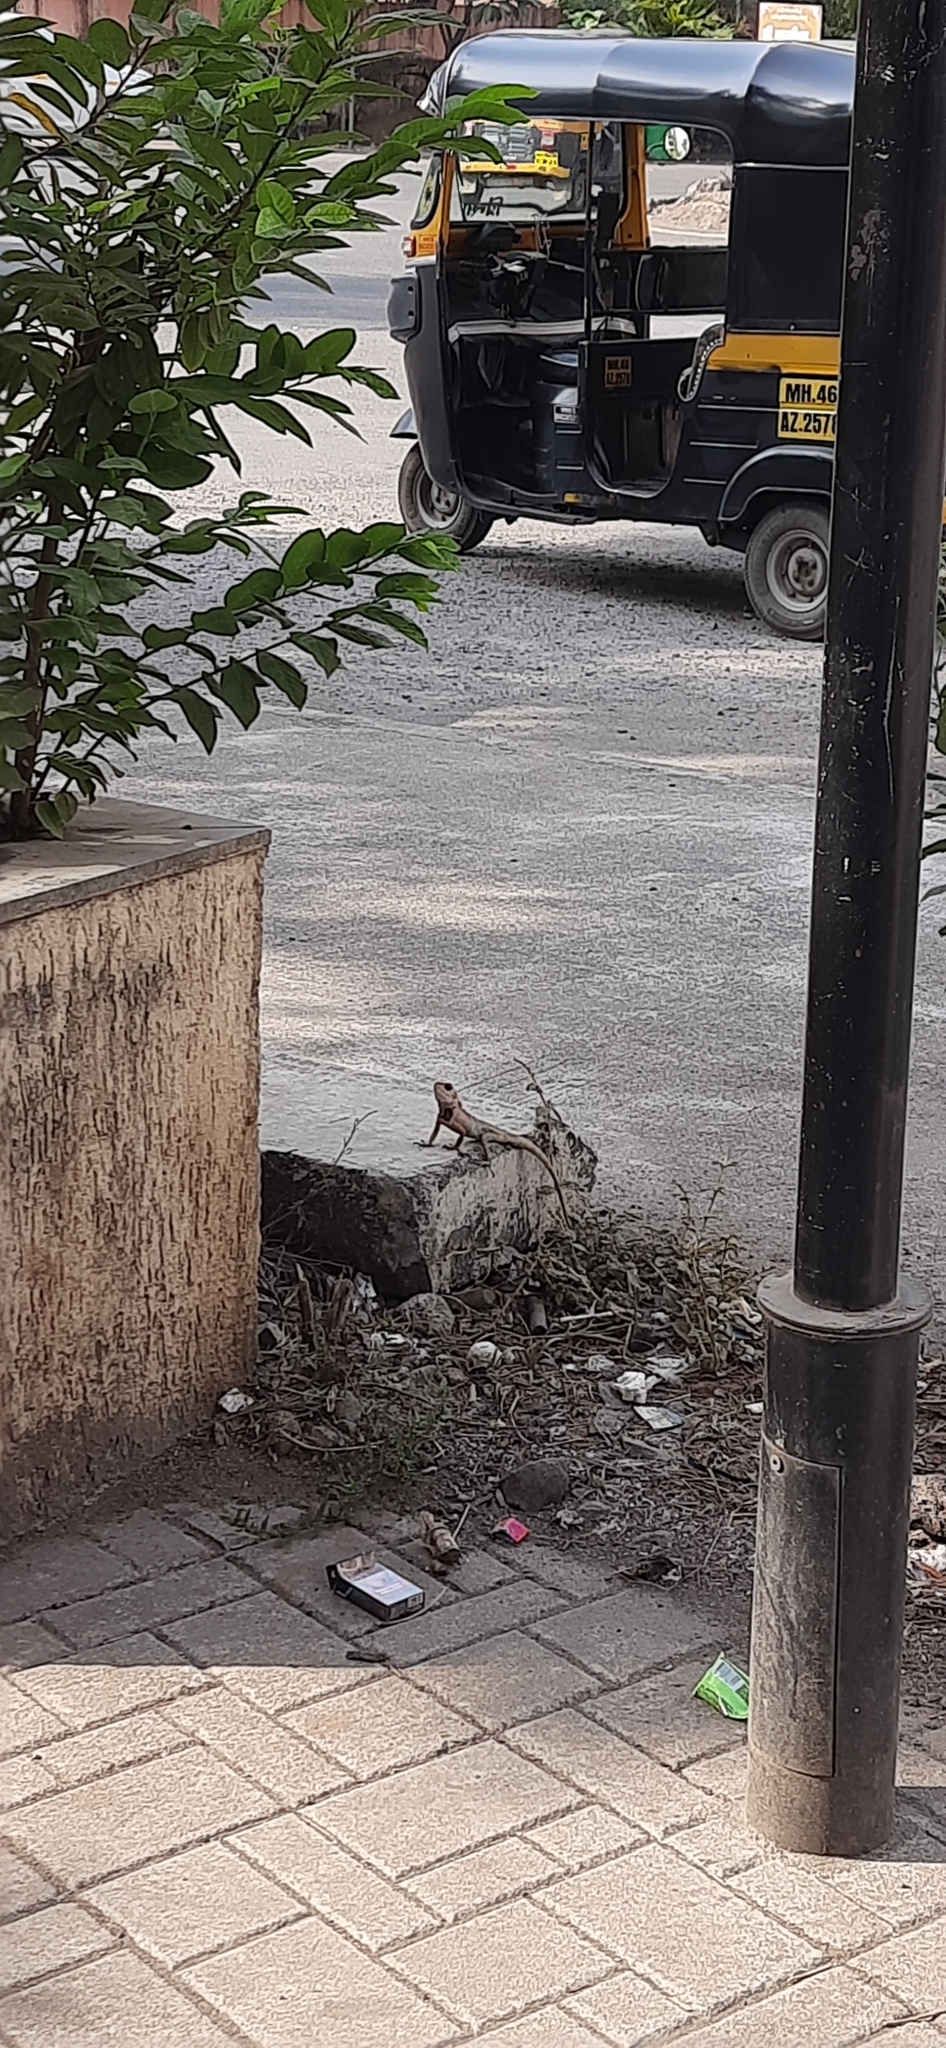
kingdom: Animalia
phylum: Chordata
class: Squamata
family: Agamidae
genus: Calotes
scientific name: Calotes versicolor
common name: Oriental garden lizard
